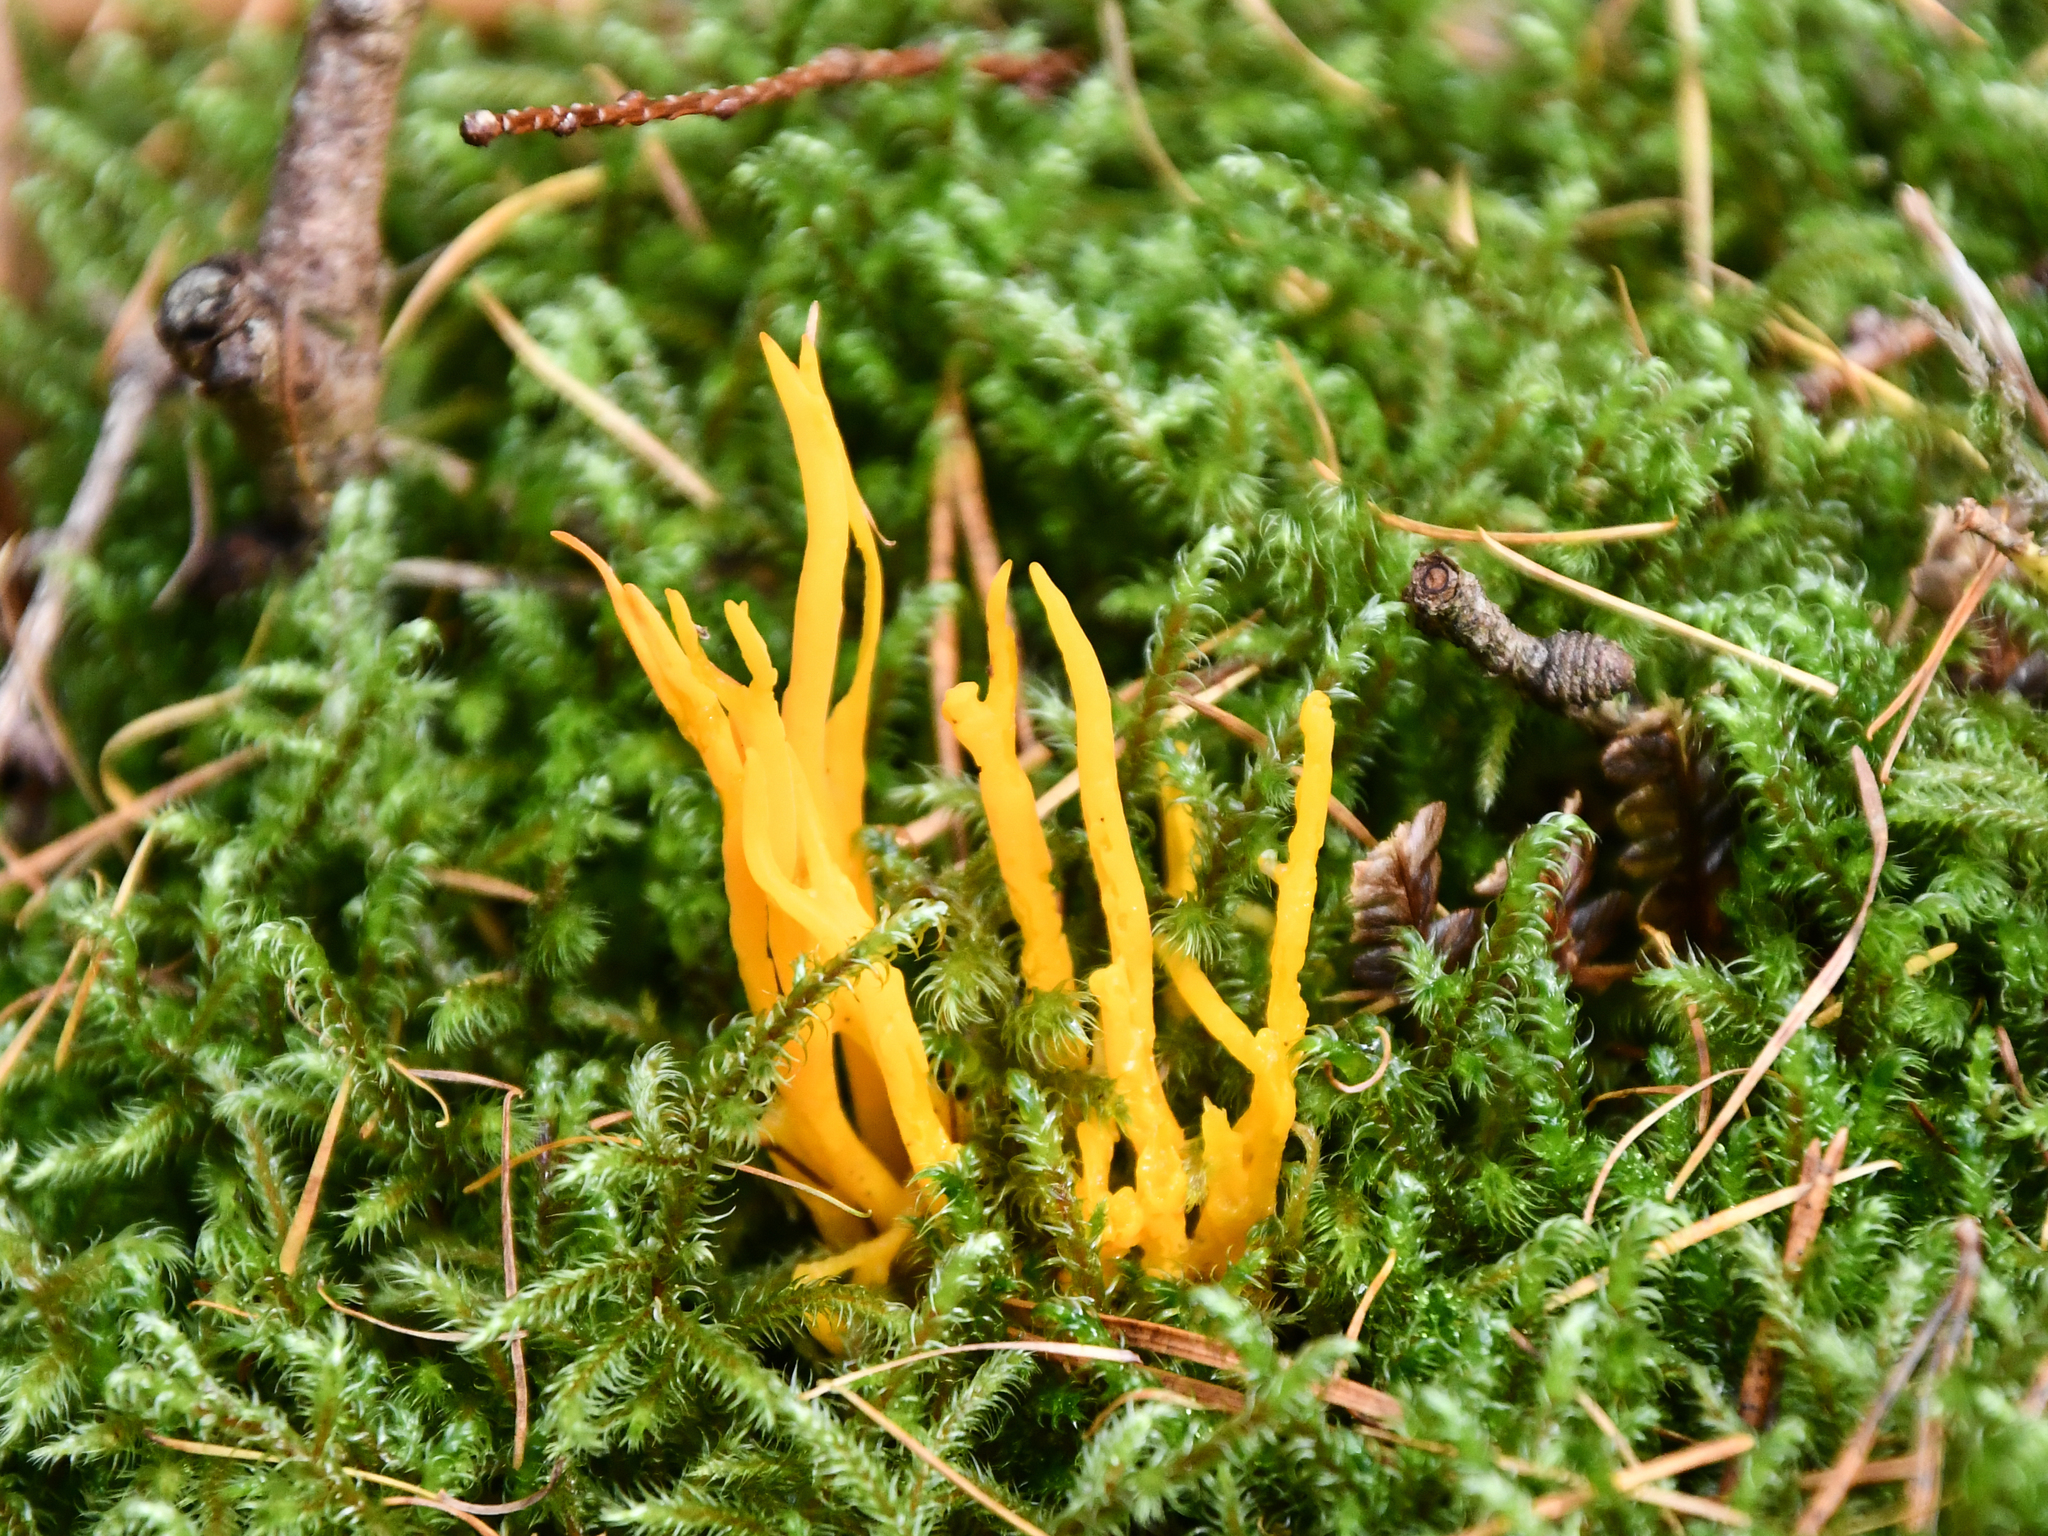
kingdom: Fungi
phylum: Basidiomycota
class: Dacrymycetes
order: Dacrymycetales
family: Dacrymycetaceae
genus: Calocera
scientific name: Calocera viscosa
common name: Yellow stagshorn
